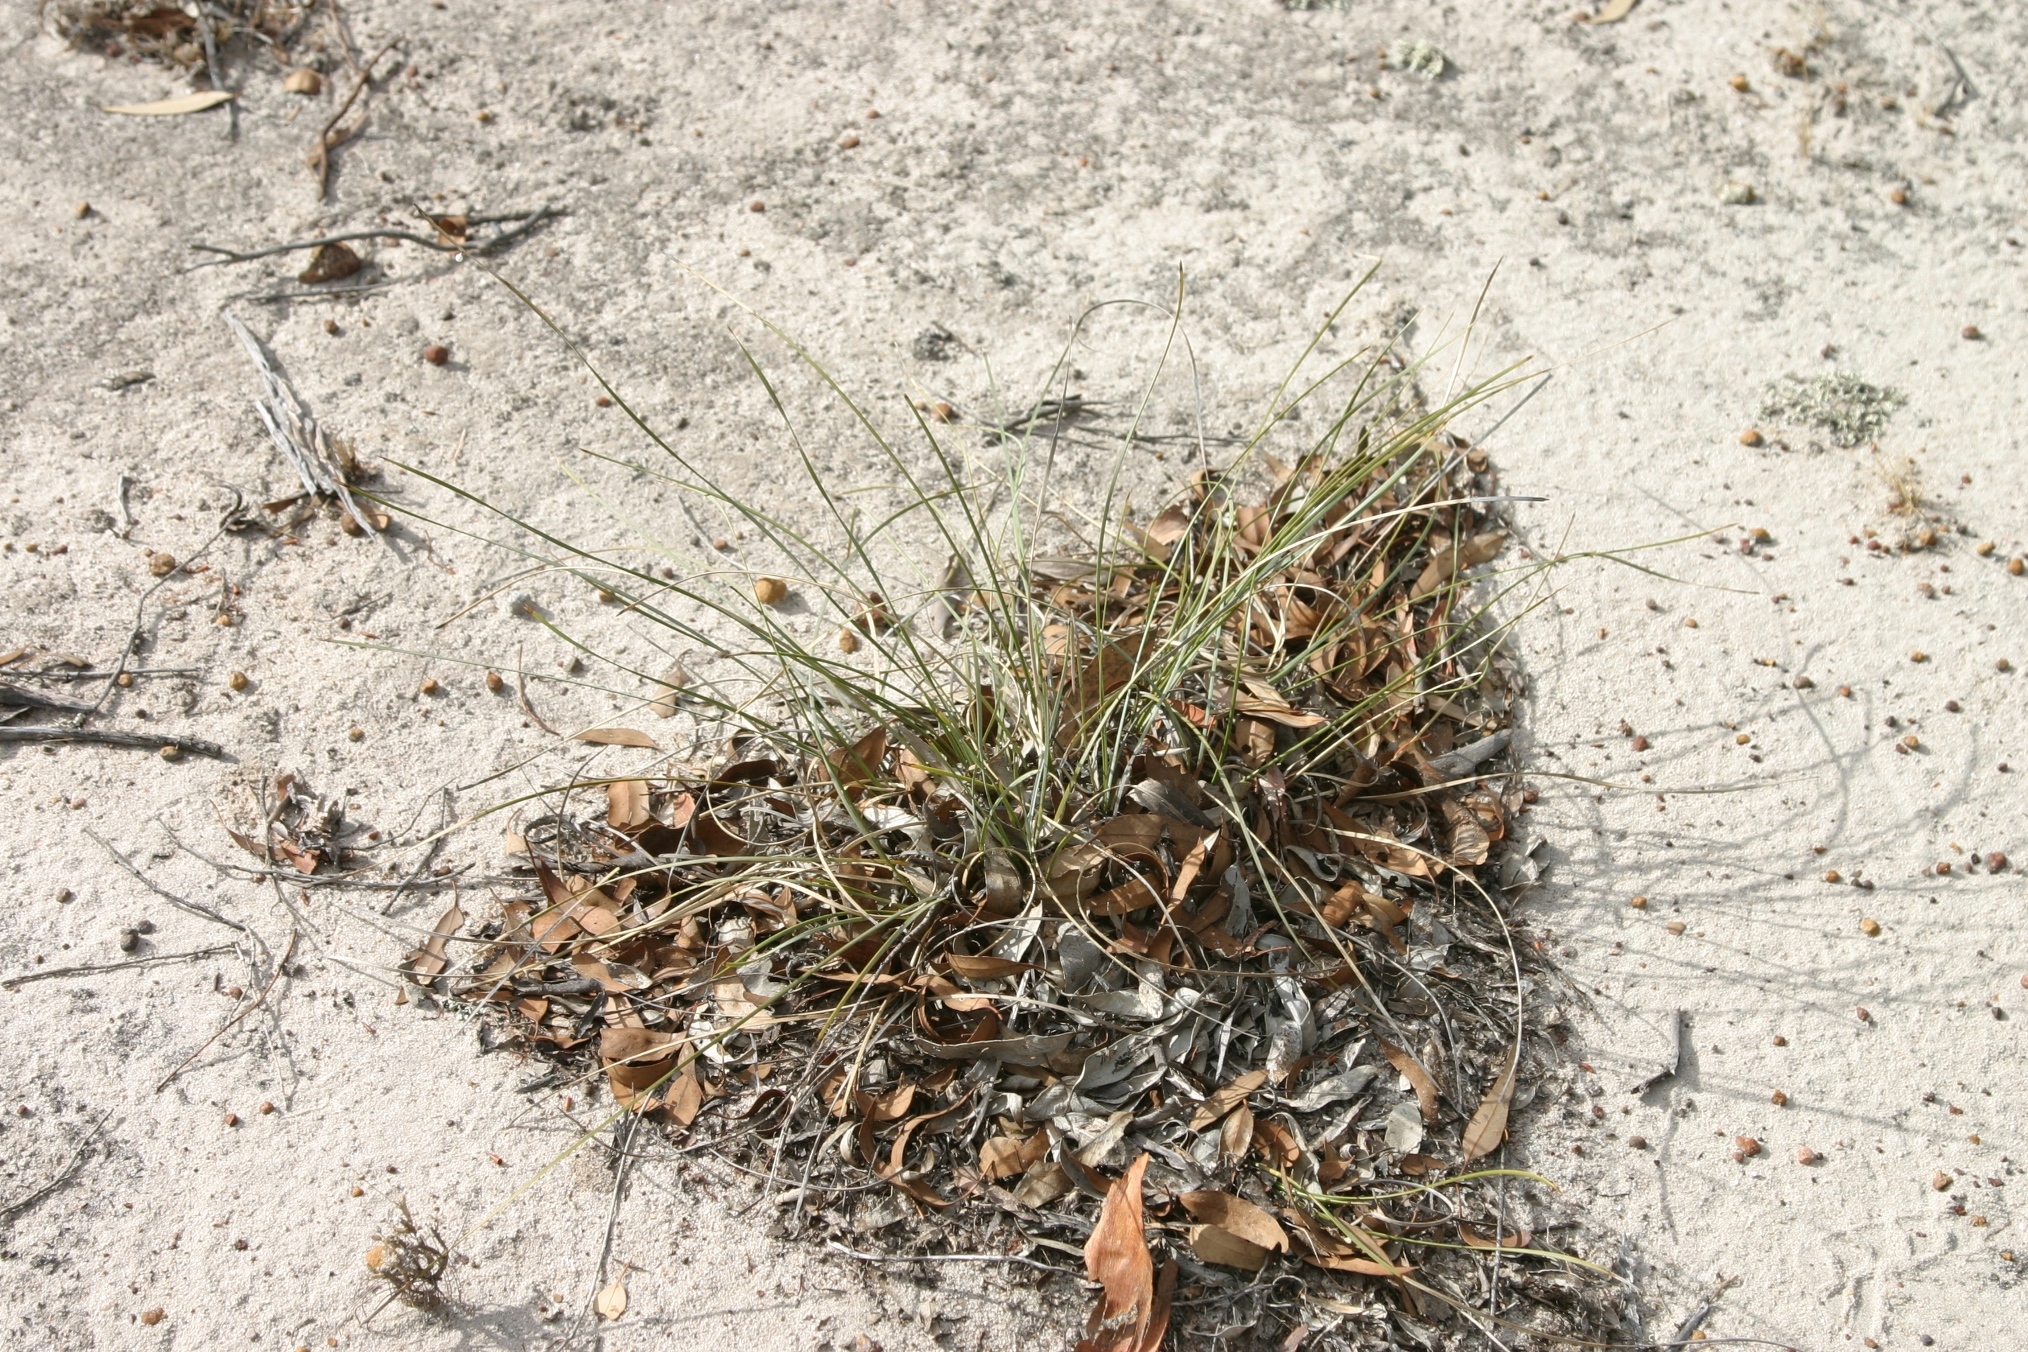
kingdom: Plantae
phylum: Tracheophyta
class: Liliopsida
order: Asparagales
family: Asparagaceae
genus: Lomandra
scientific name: Lomandra effusa
